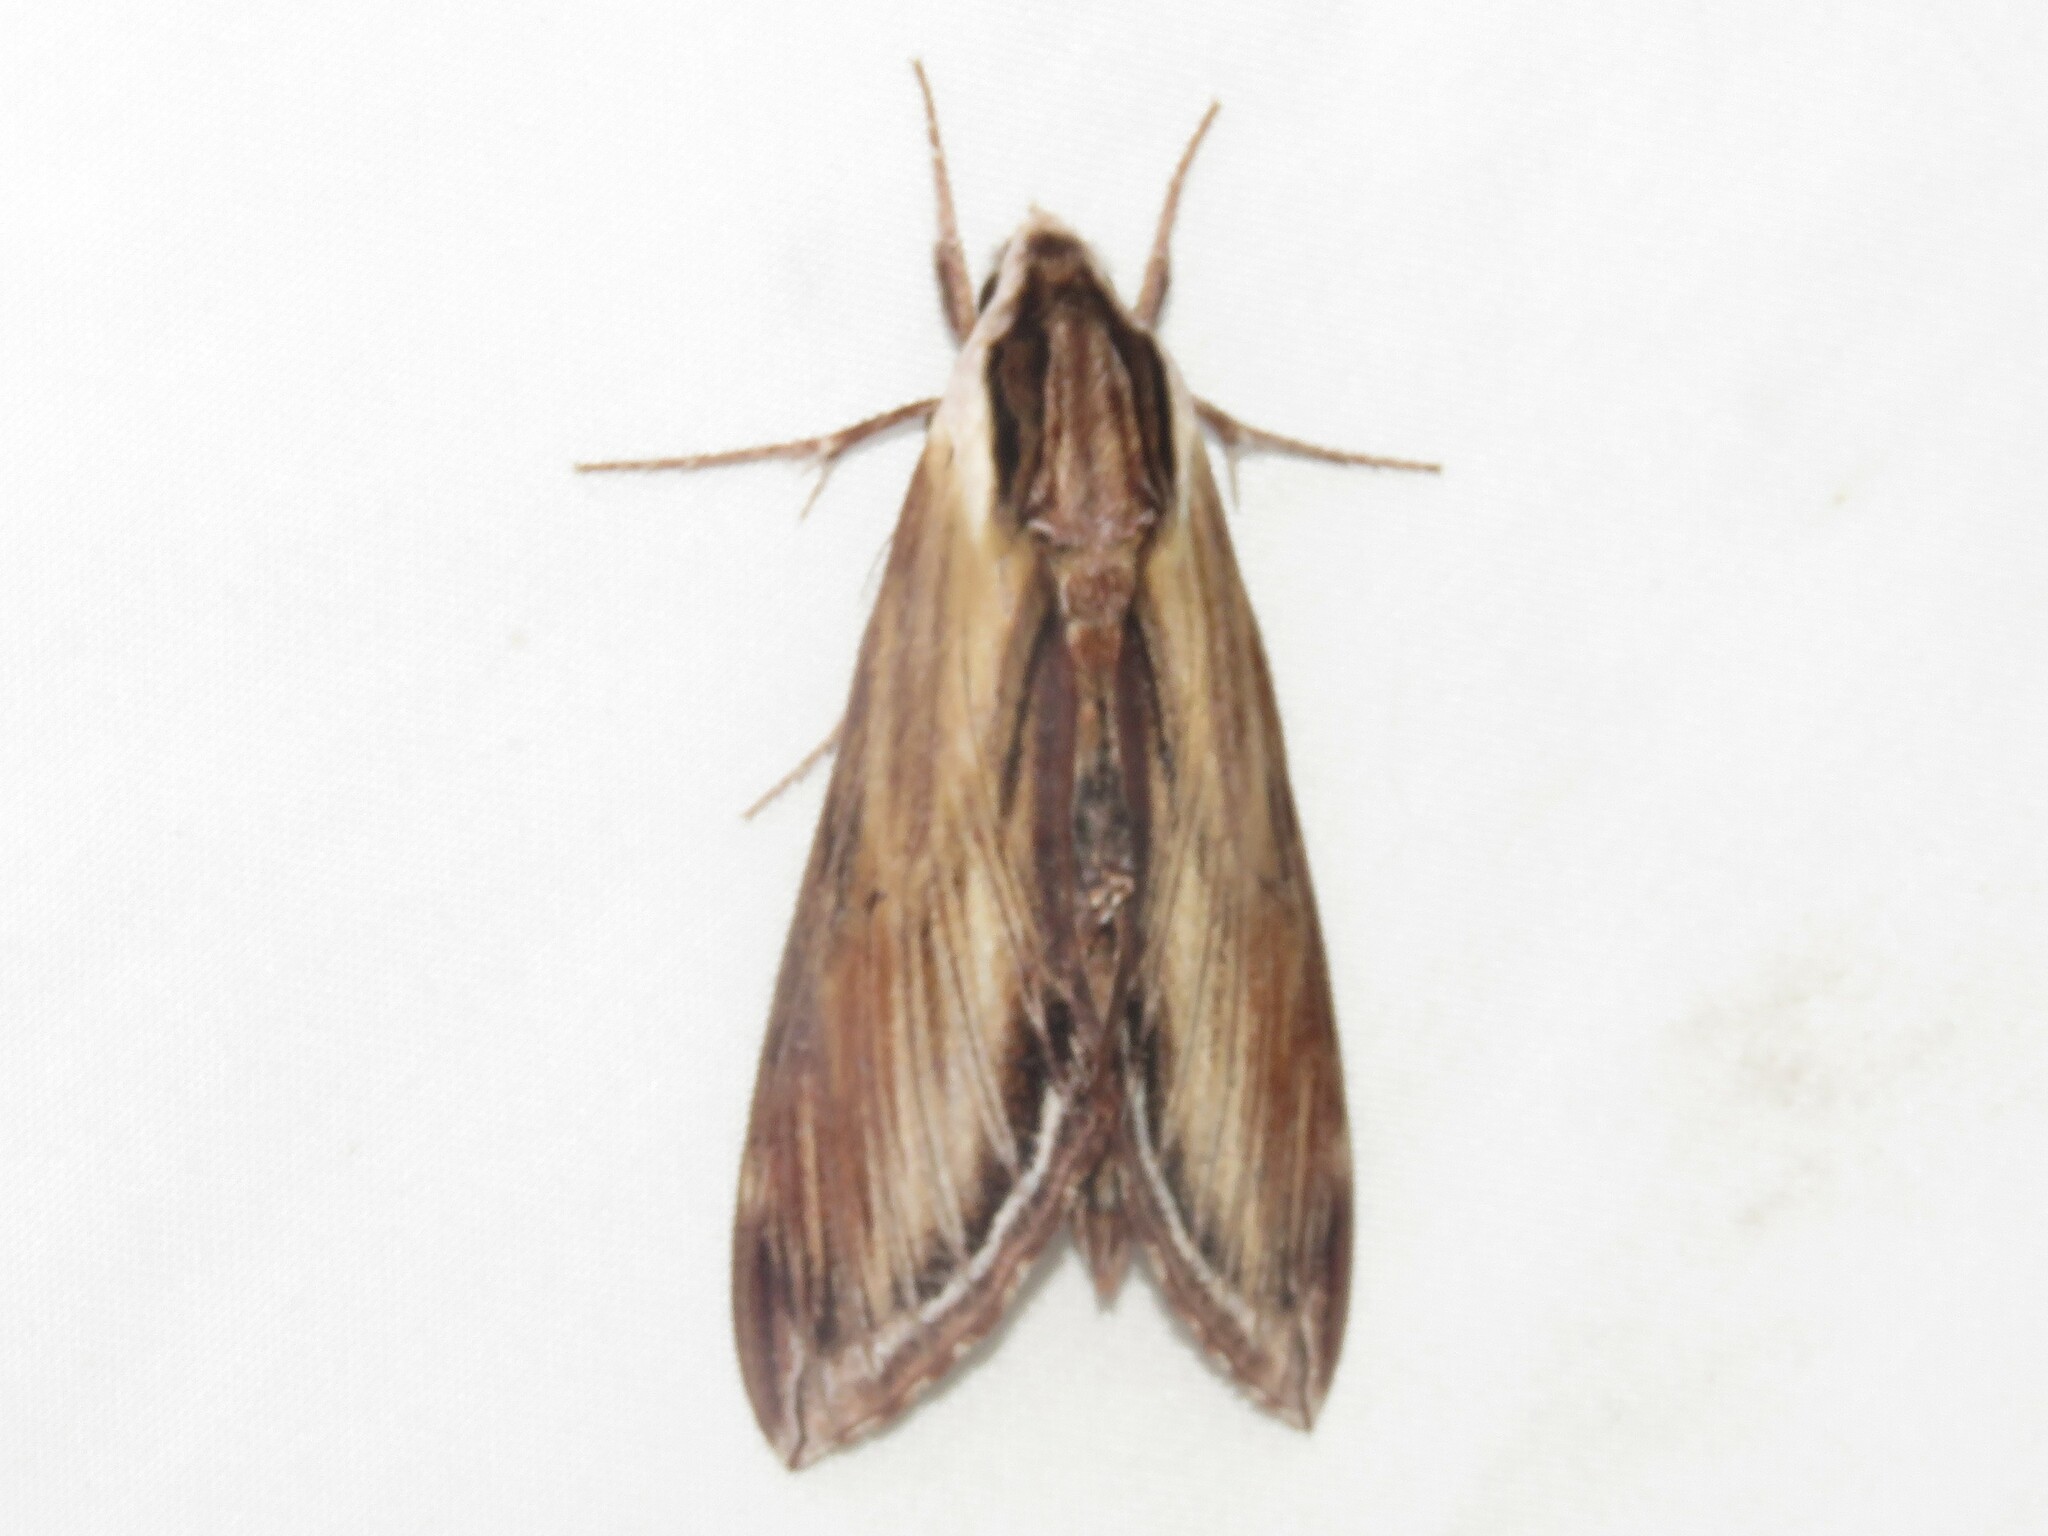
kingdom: Animalia
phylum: Arthropoda
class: Insecta
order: Lepidoptera
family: Sphingidae
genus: Sphinx
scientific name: Sphinx kalmiae
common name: Laurel sphinx
